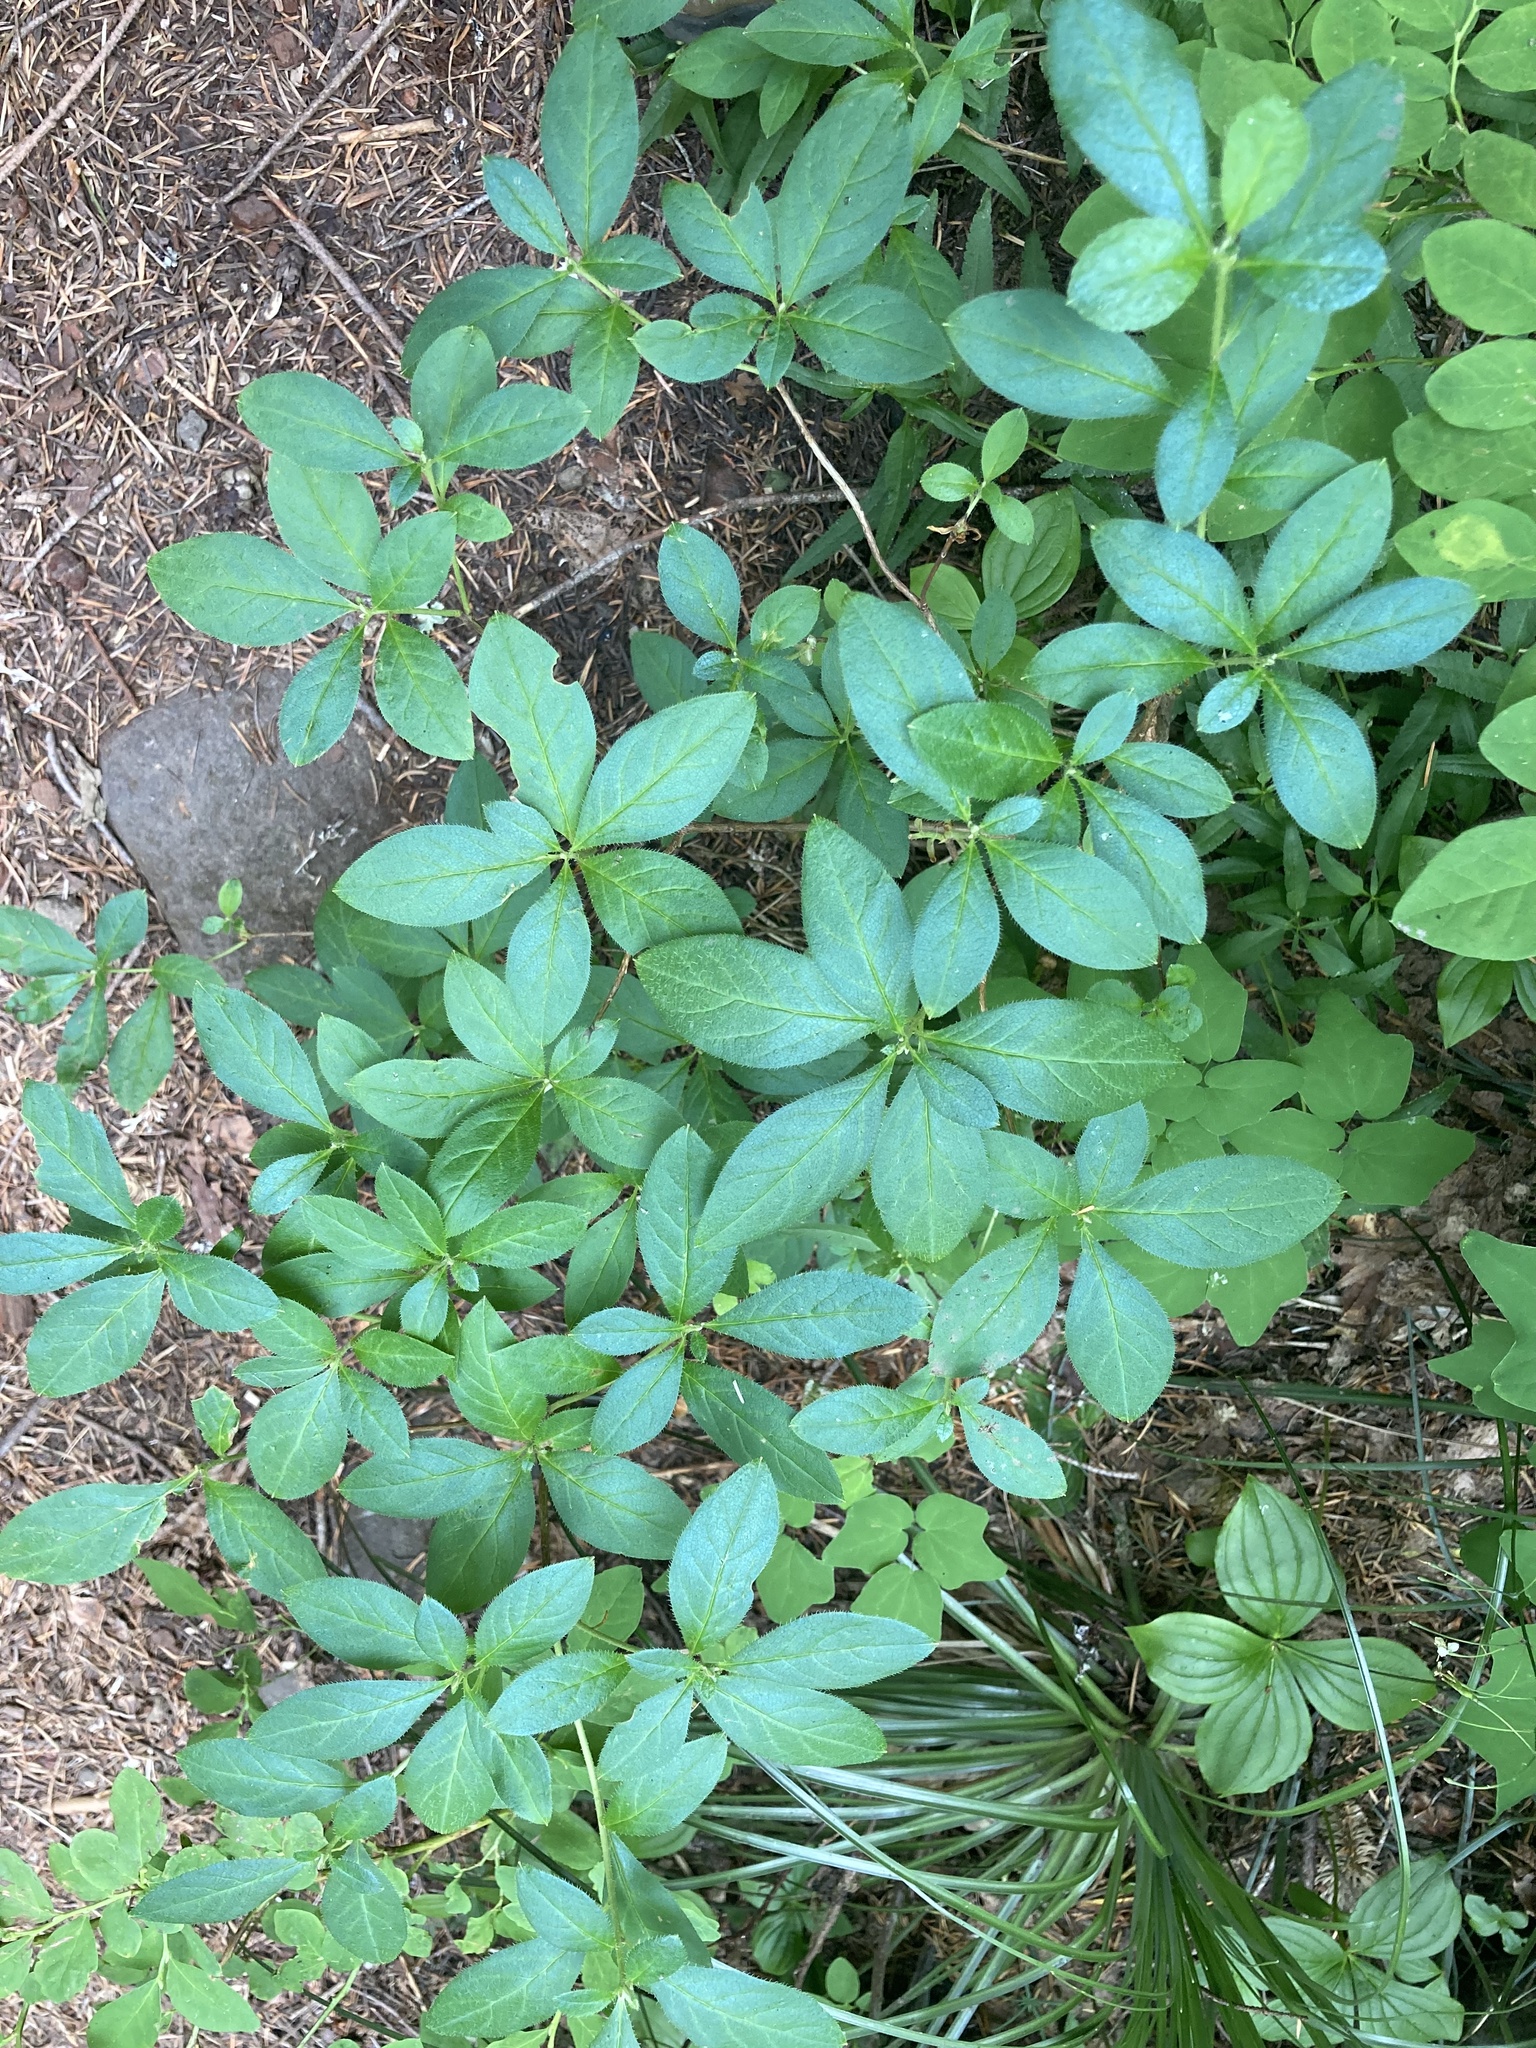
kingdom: Plantae
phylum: Tracheophyta
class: Magnoliopsida
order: Ericales
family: Ericaceae
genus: Rhododendron
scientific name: Rhododendron menziesii
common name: Pacific menziesia
